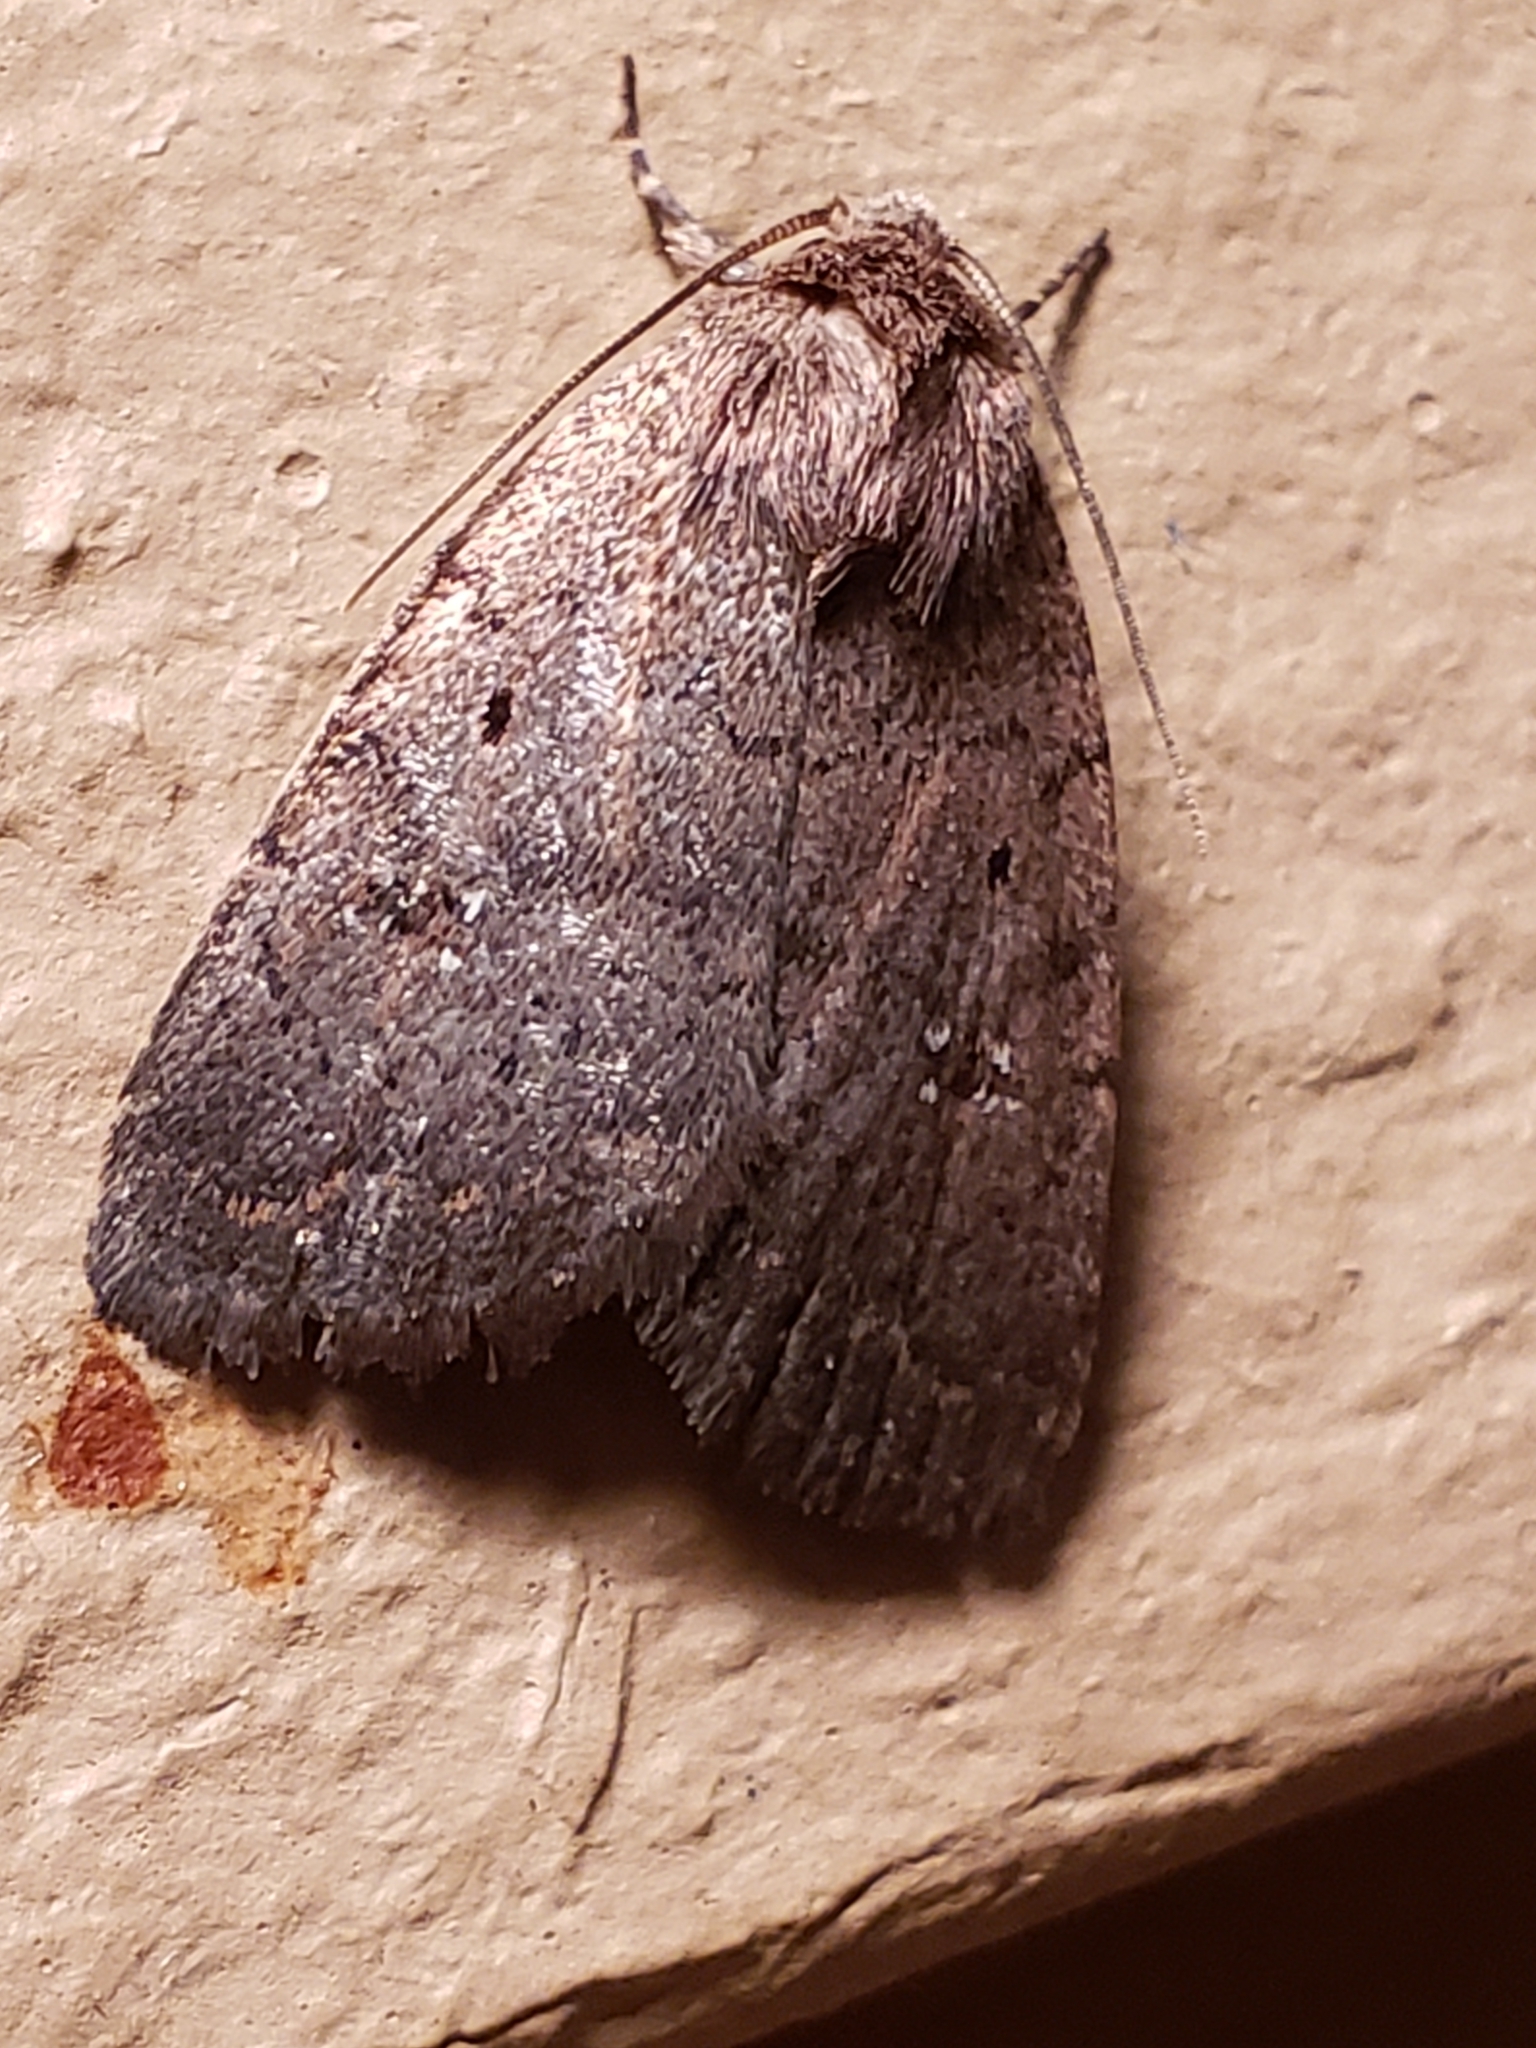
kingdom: Animalia
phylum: Arthropoda
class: Insecta
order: Lepidoptera
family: Noctuidae
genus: Athetis
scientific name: Athetis tarda
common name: Slowpoke moth
